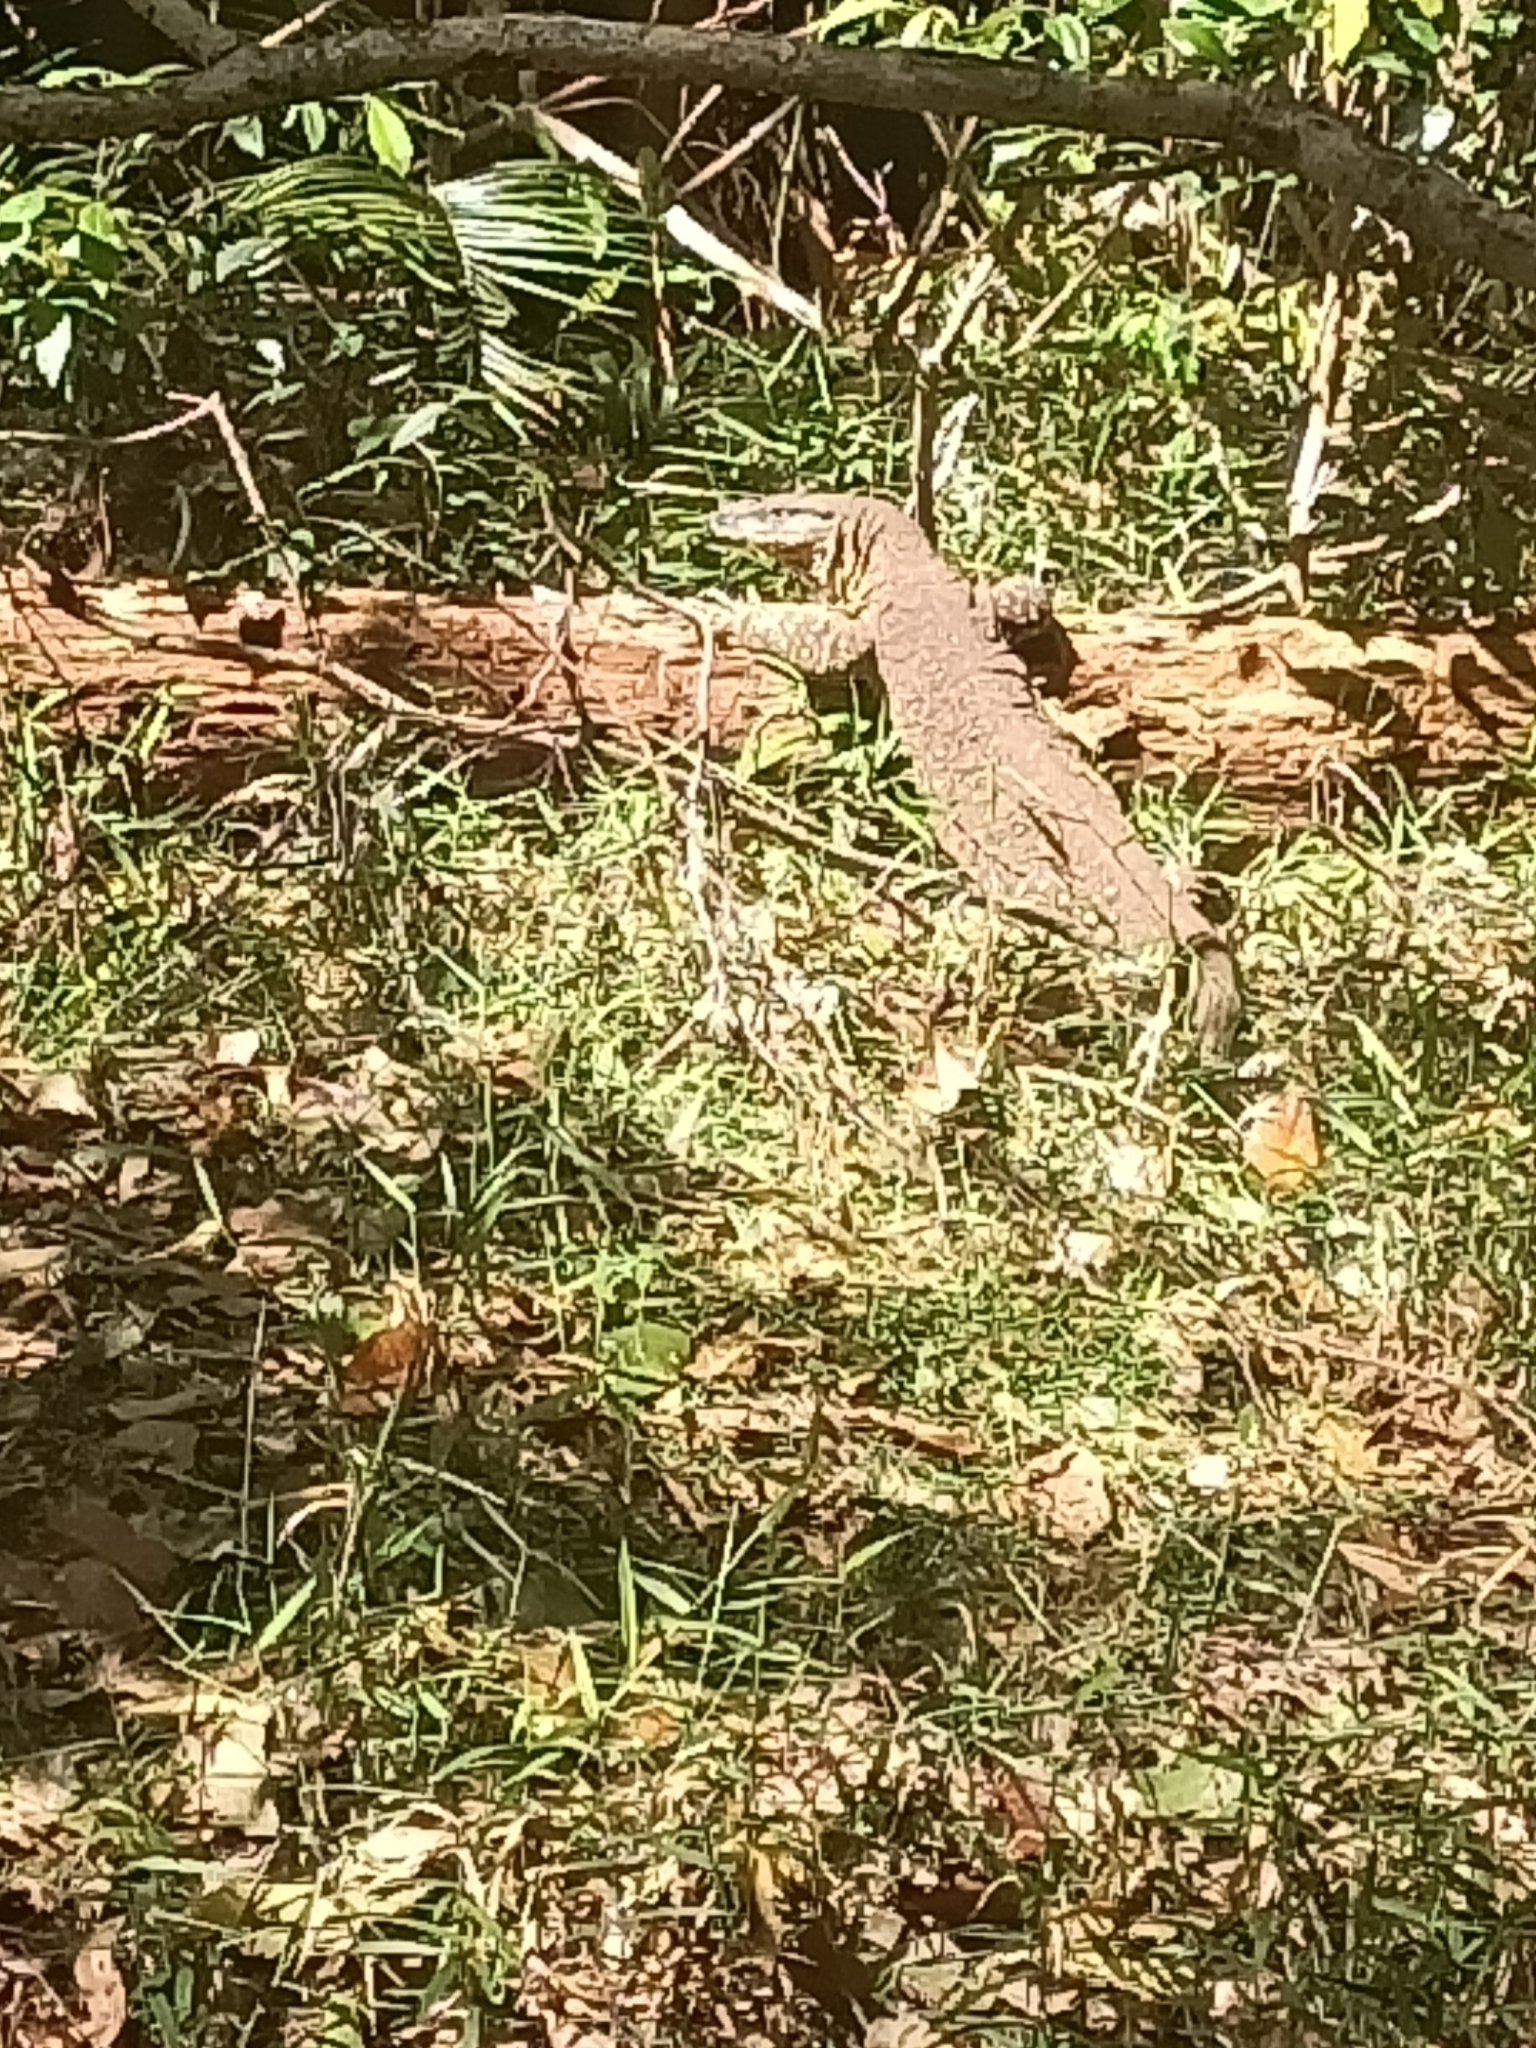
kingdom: Animalia
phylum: Chordata
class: Squamata
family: Varanidae
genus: Varanus
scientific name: Varanus varius
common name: Lace monitor
